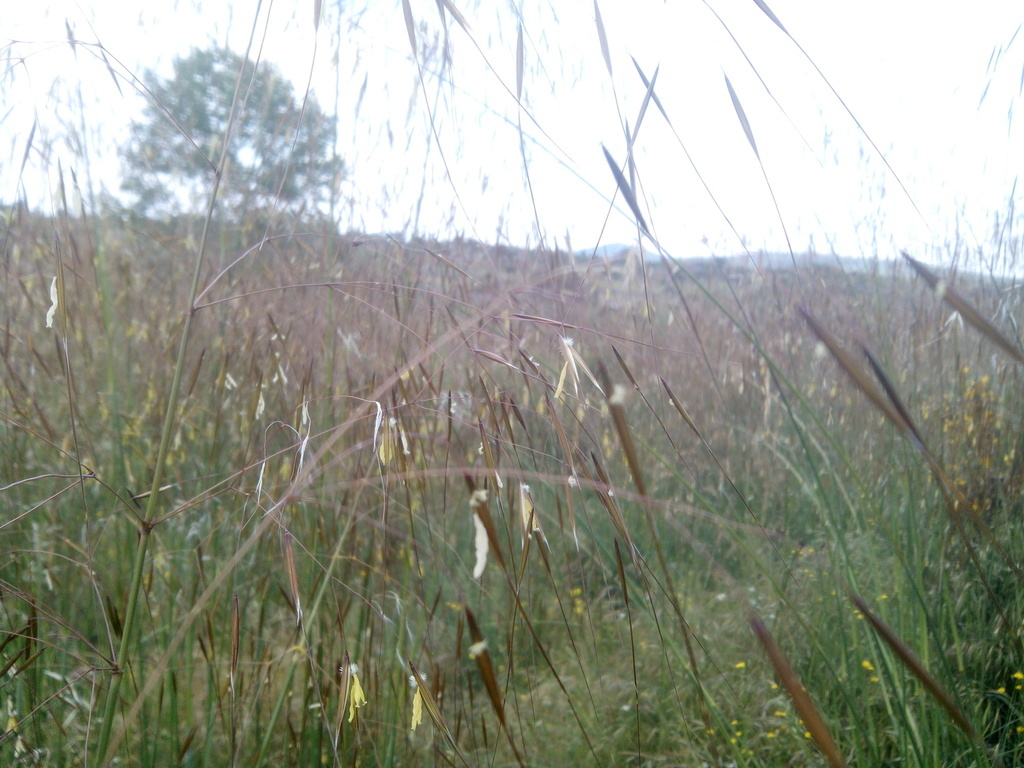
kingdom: Plantae
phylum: Tracheophyta
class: Liliopsida
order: Poales
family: Poaceae
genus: Celtica
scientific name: Celtica gigantea
